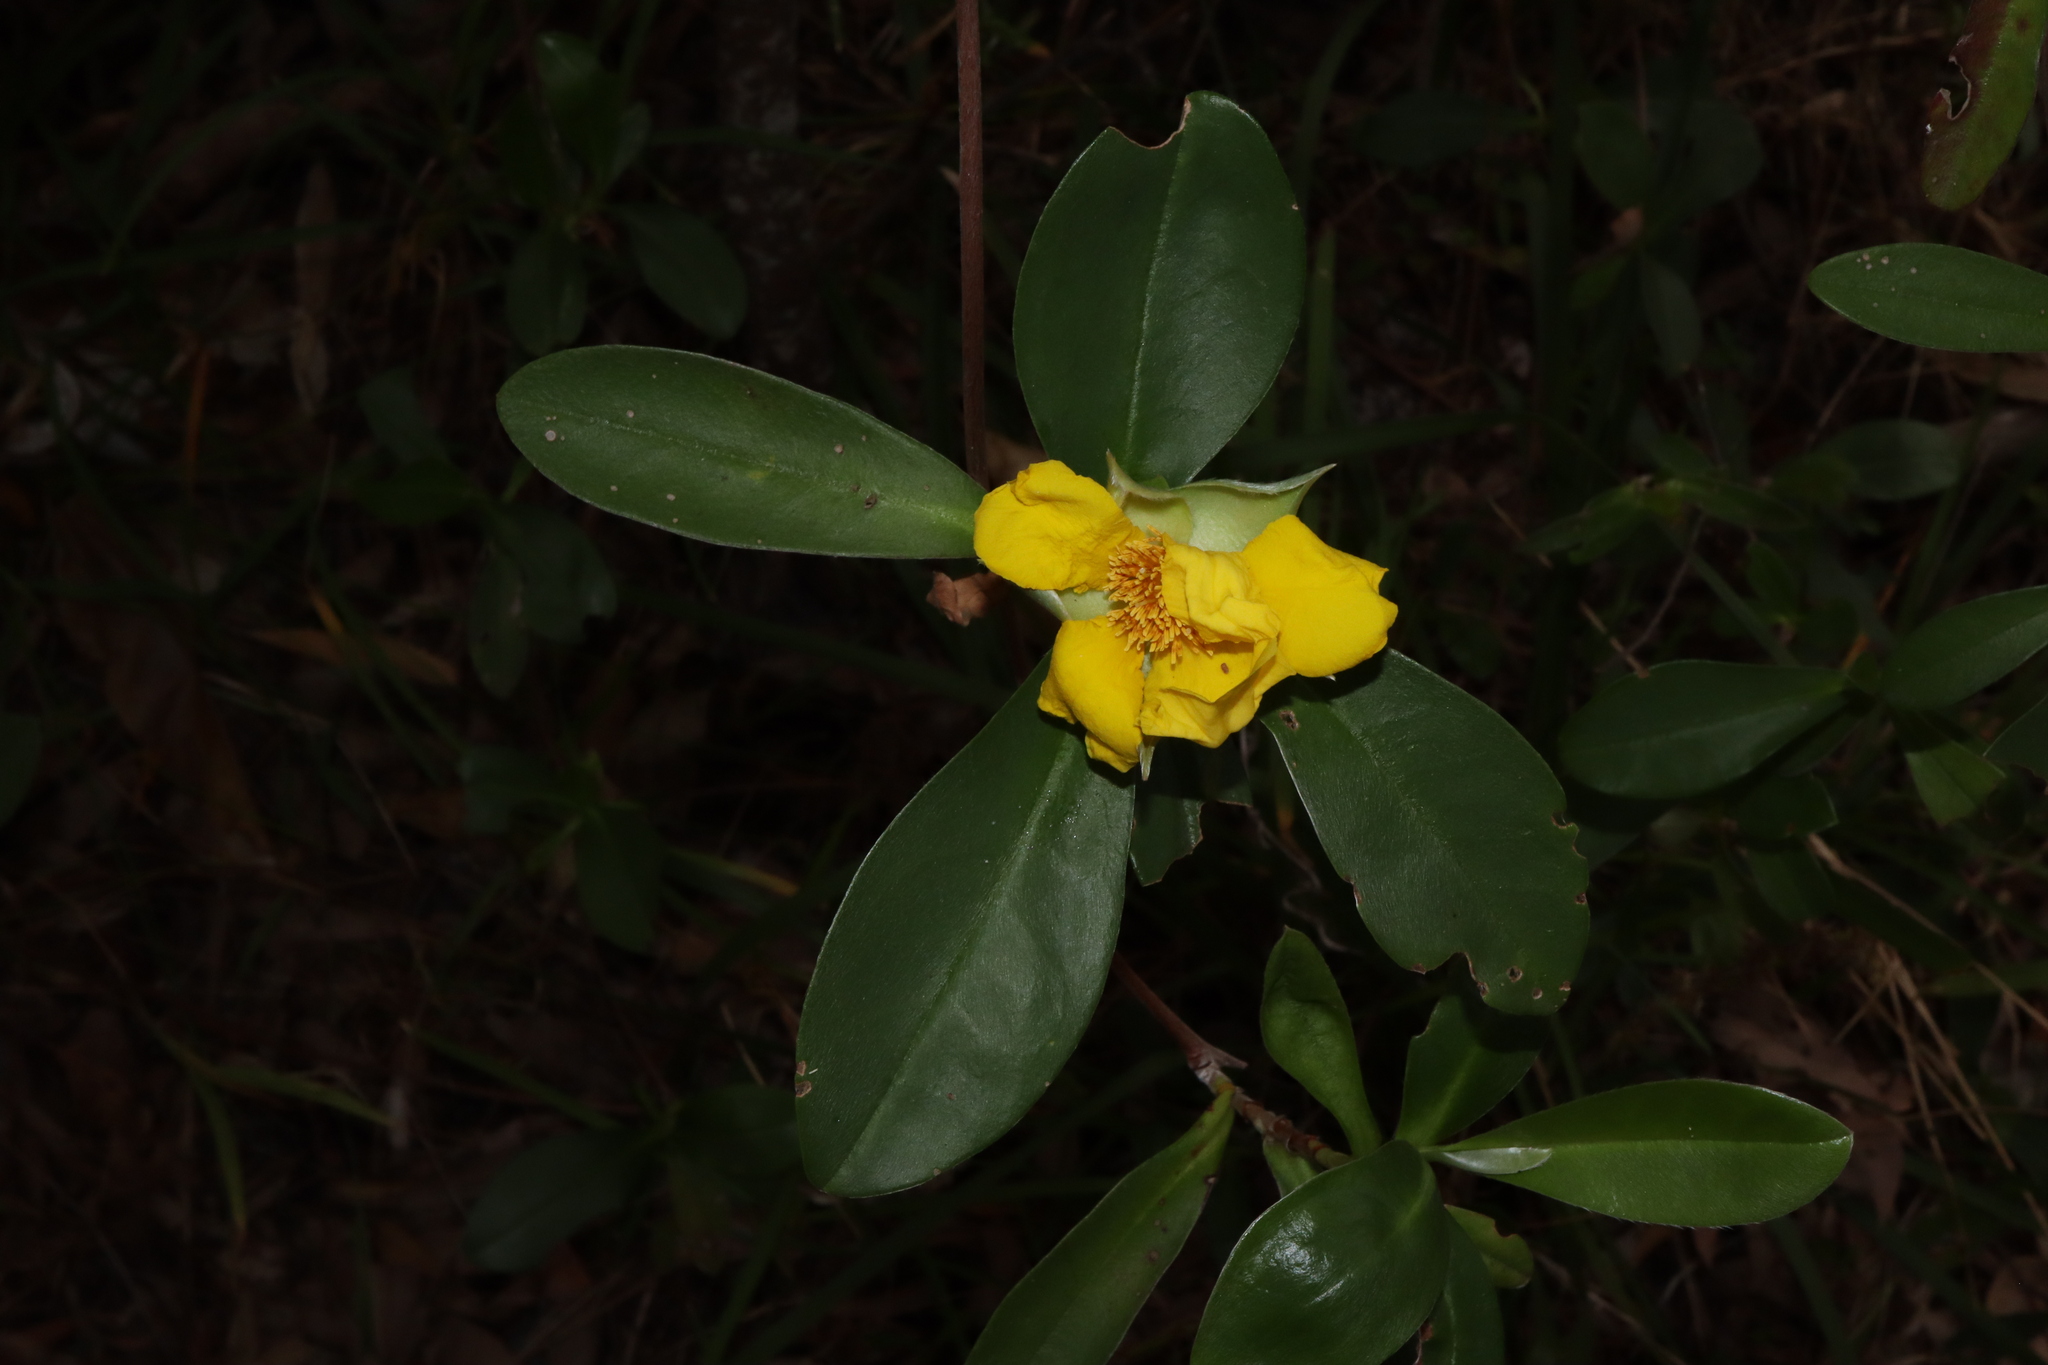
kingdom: Plantae
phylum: Tracheophyta
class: Magnoliopsida
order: Dilleniales
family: Dilleniaceae
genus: Hibbertia
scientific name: Hibbertia scandens
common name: Climbing guinea-flower
